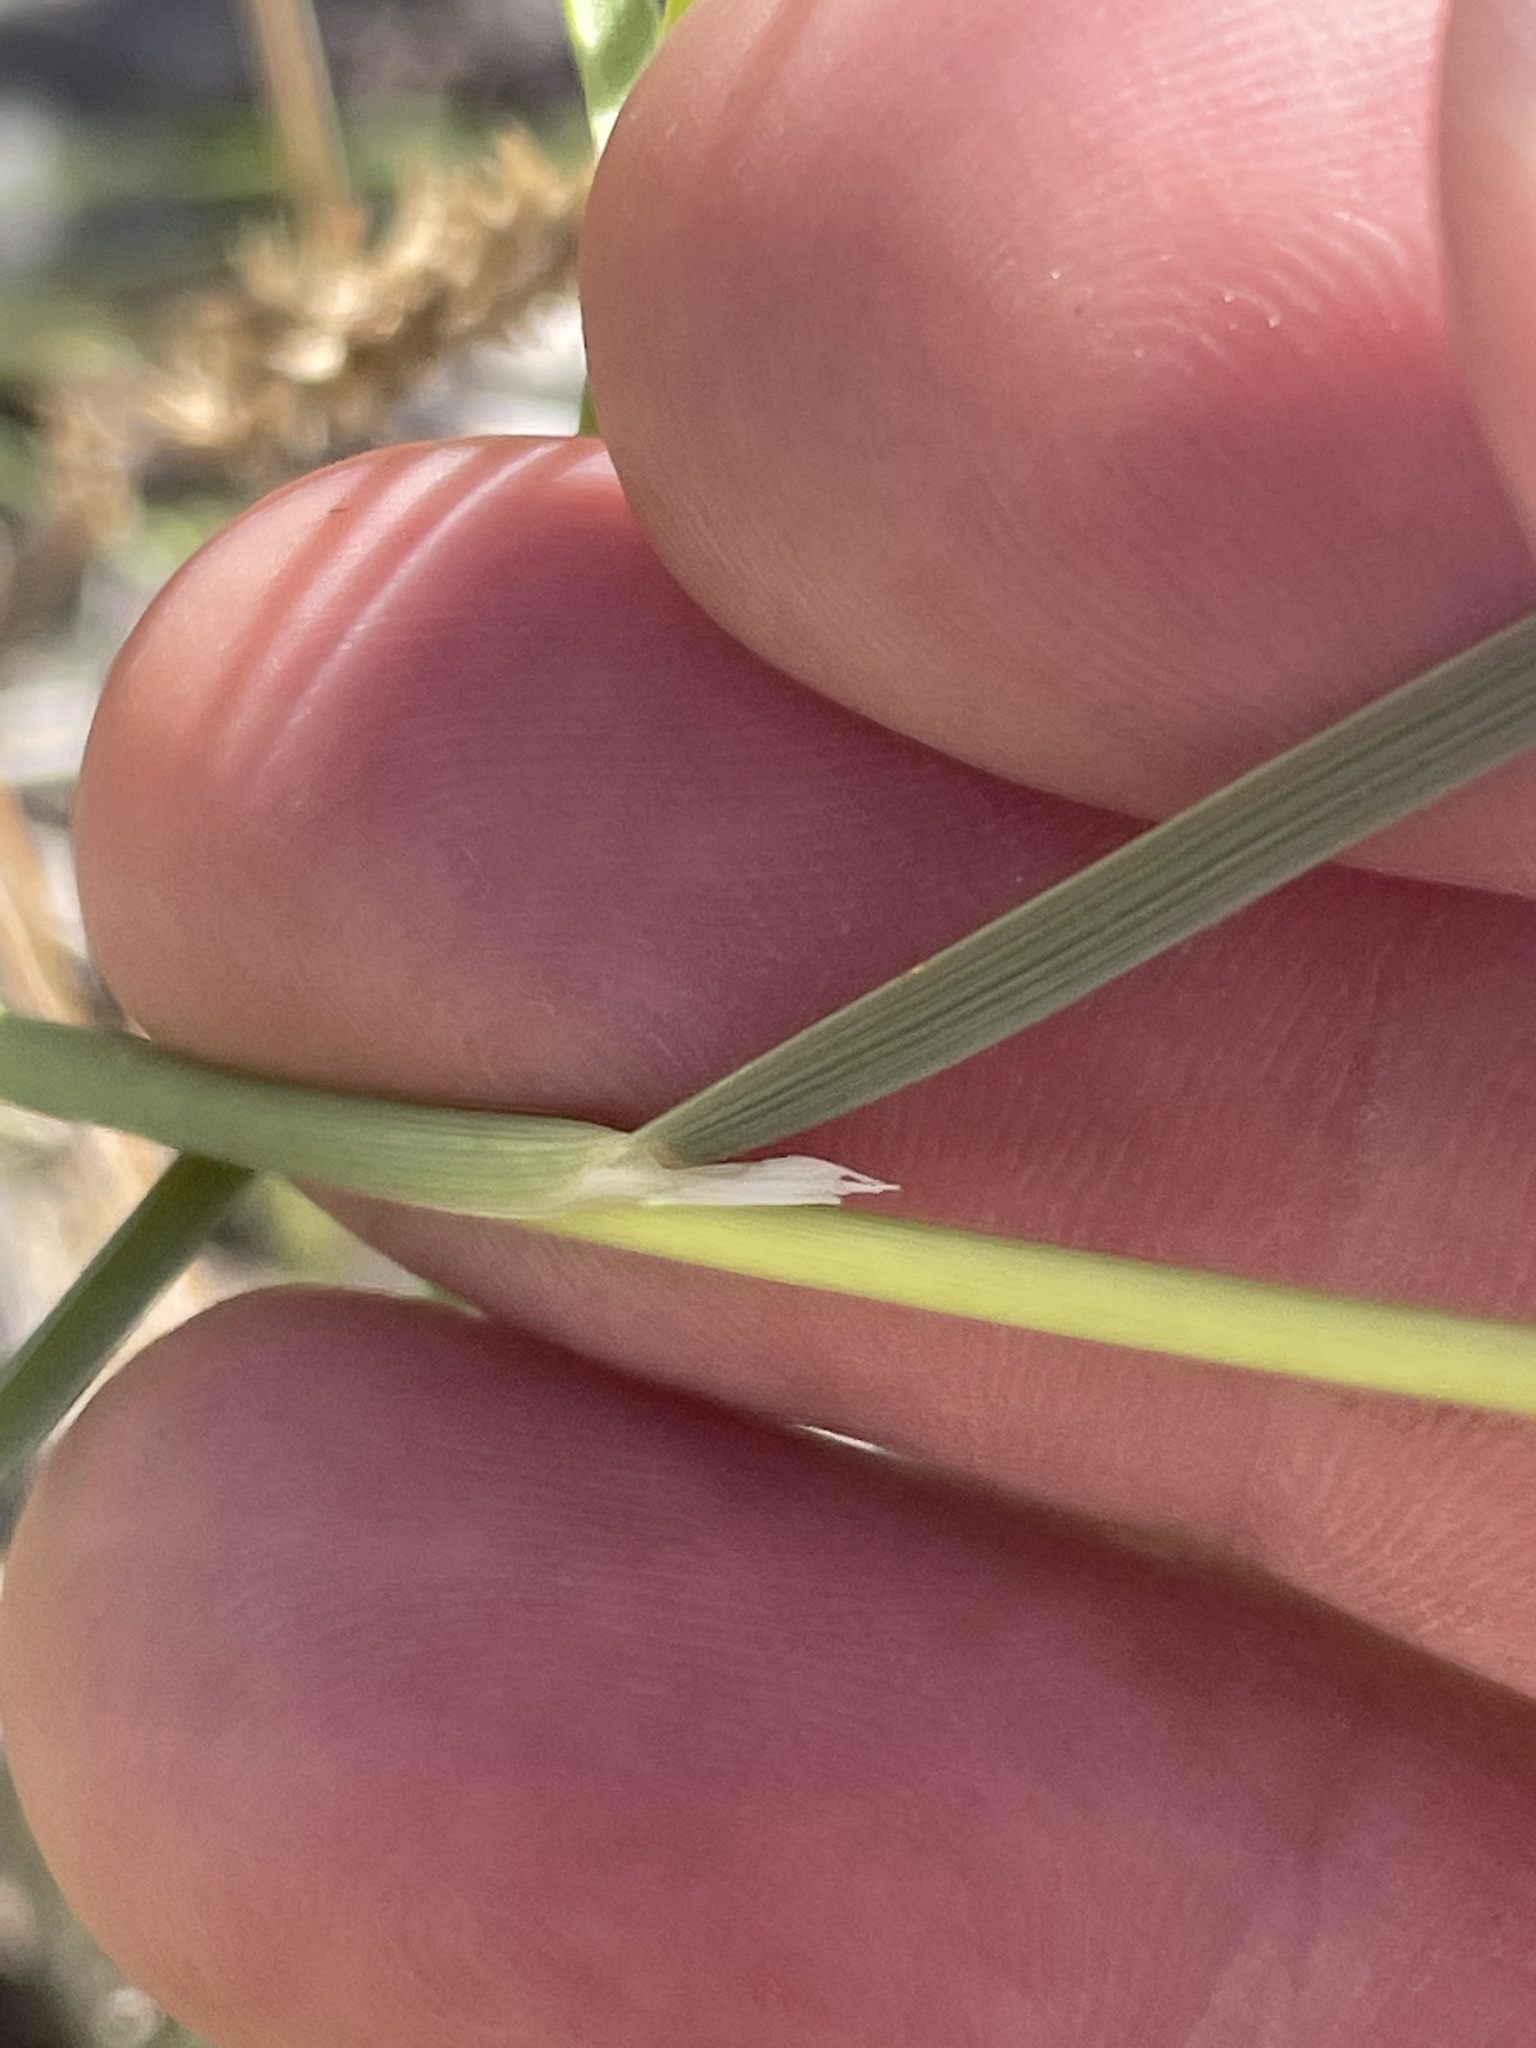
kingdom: Plantae
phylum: Tracheophyta
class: Liliopsida
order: Poales
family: Poaceae
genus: Hesperostipa
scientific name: Hesperostipa comata
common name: Needle-and-thread grass
